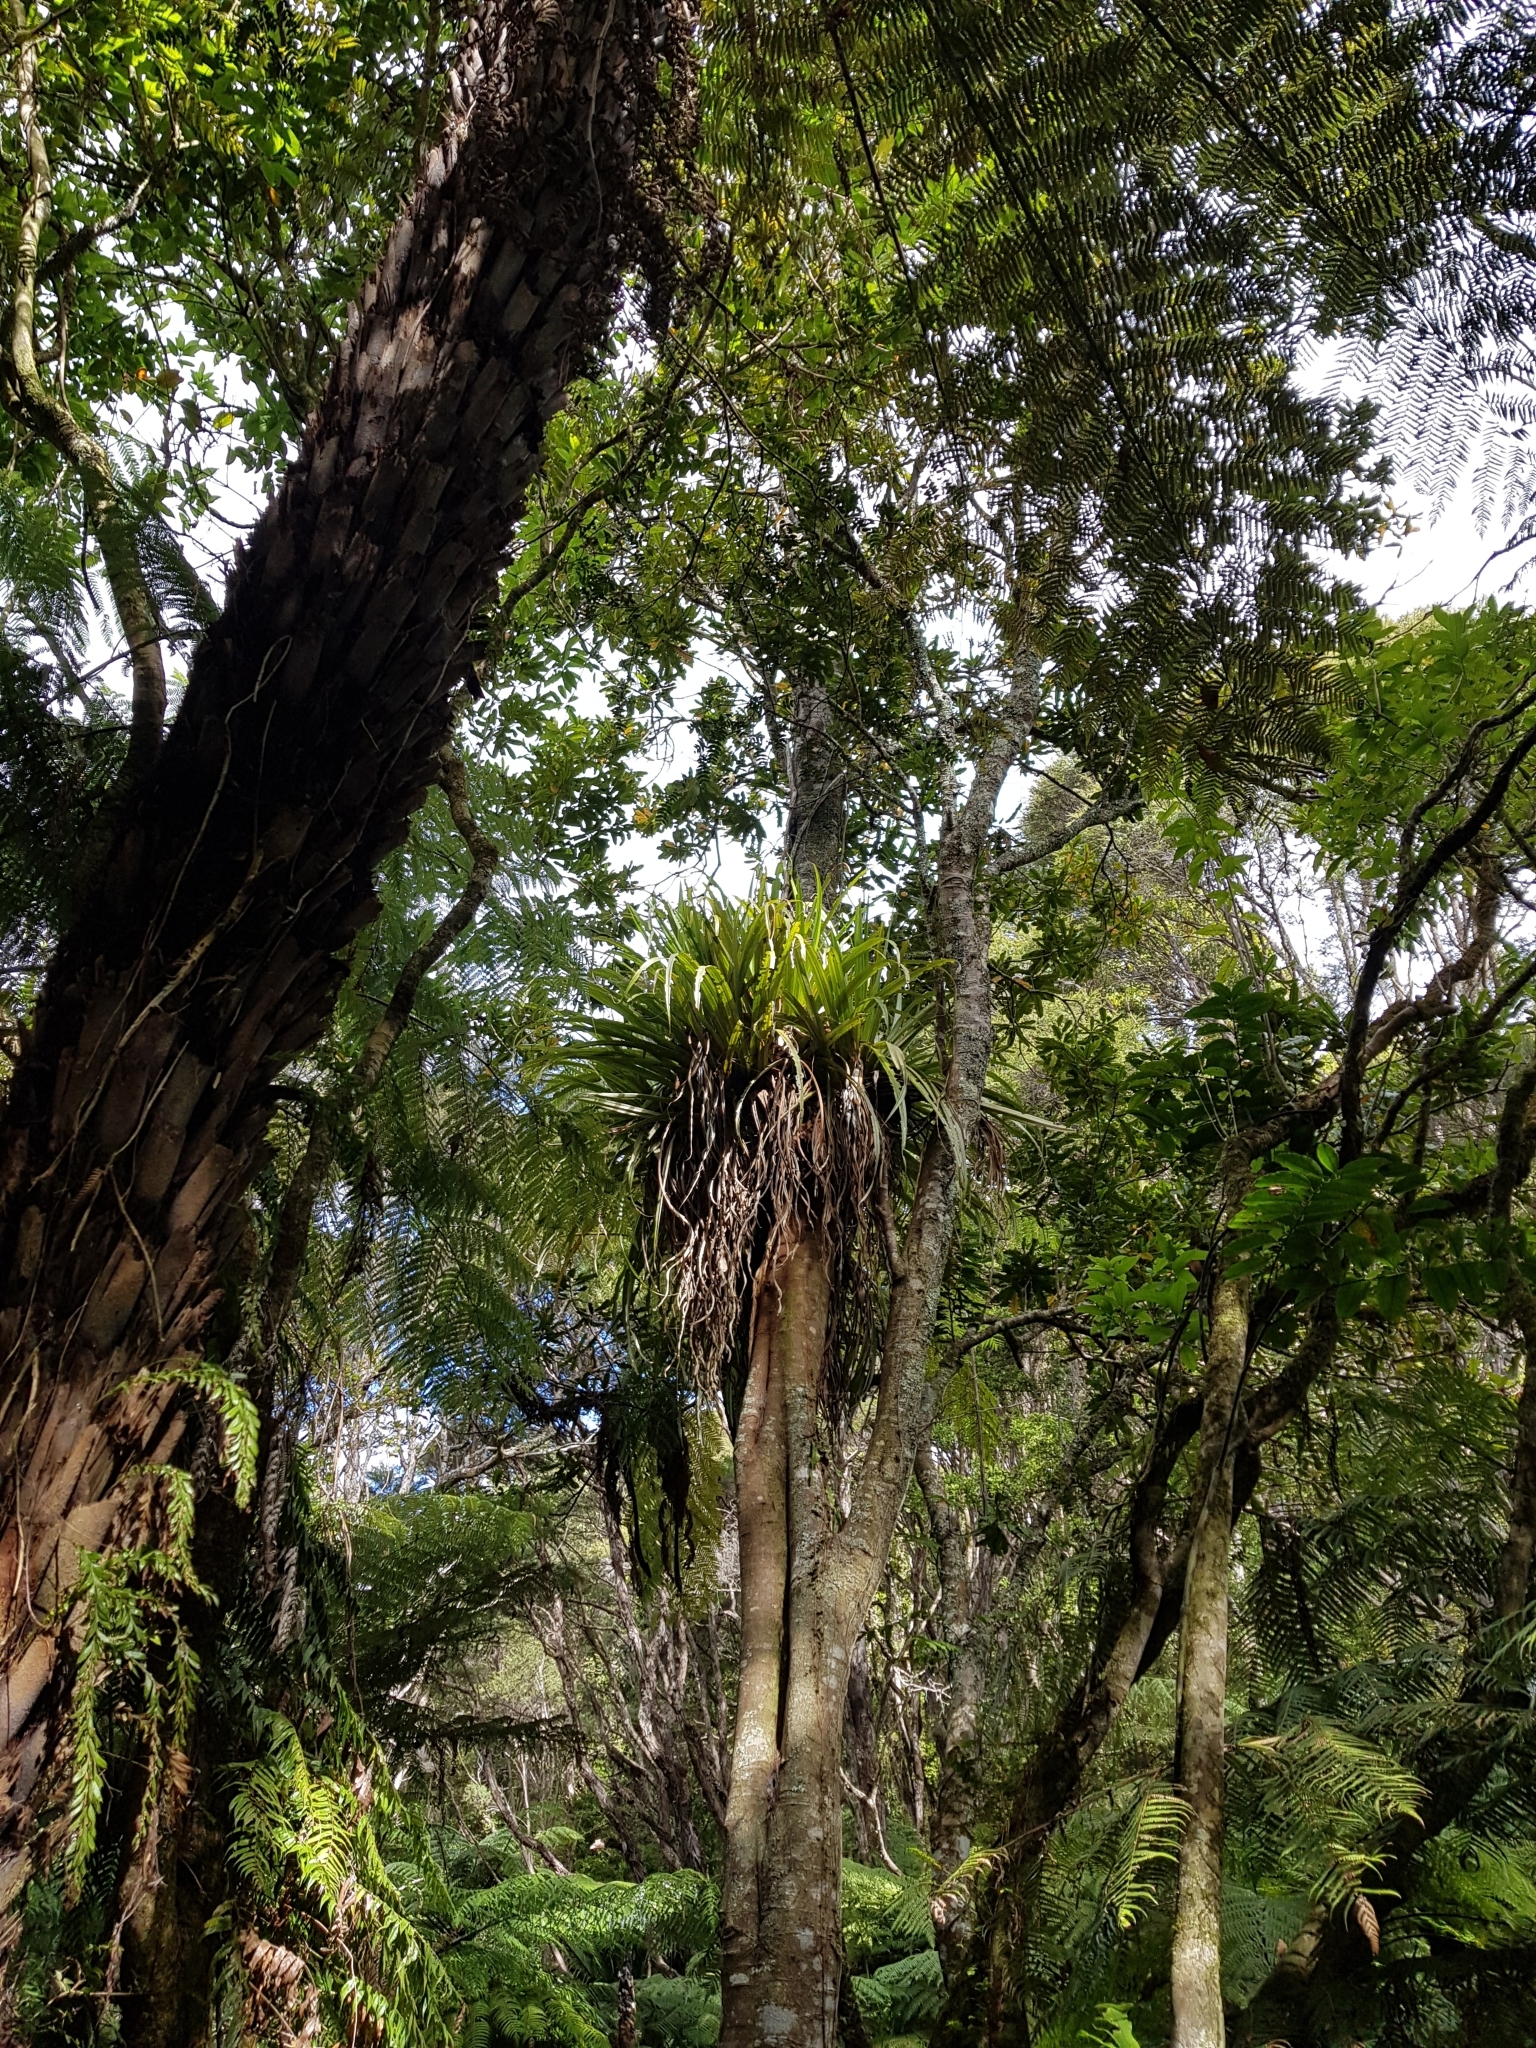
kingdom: Plantae
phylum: Tracheophyta
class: Liliopsida
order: Asparagales
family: Asteliaceae
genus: Astelia
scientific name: Astelia hastata
